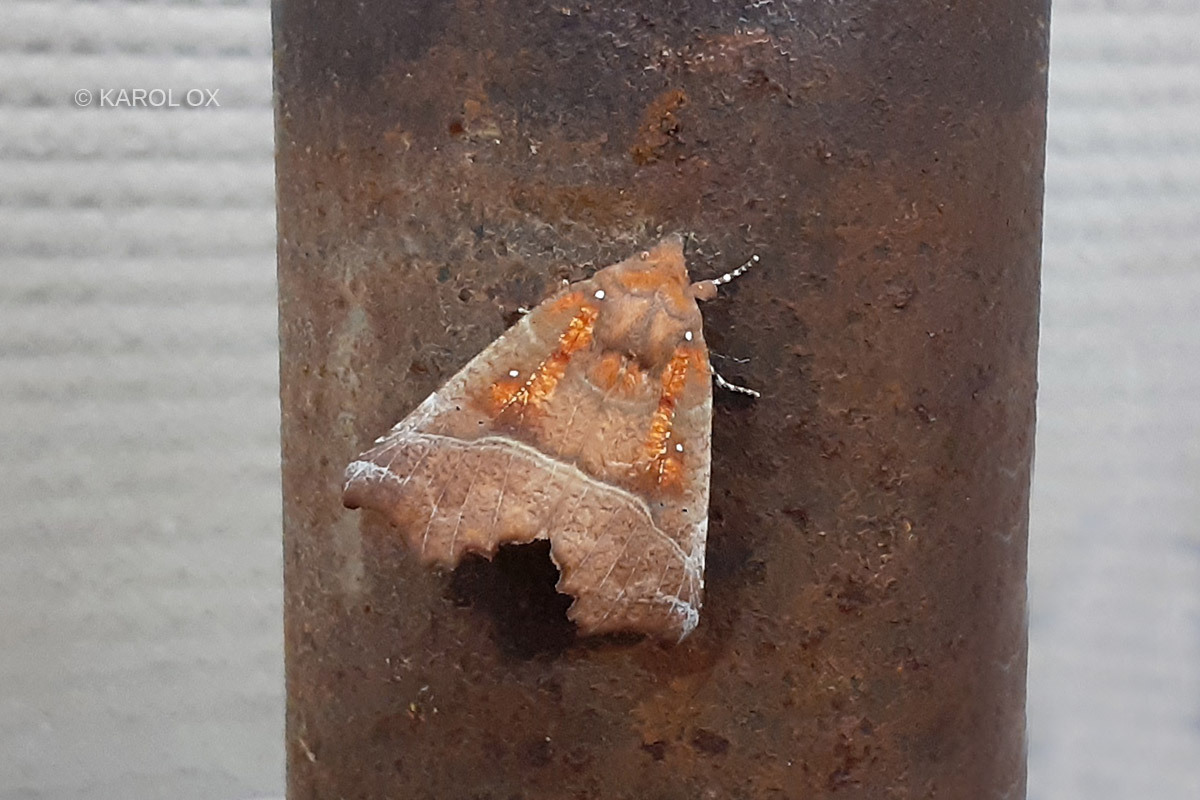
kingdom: Animalia
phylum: Arthropoda
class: Insecta
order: Lepidoptera
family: Erebidae
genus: Scoliopteryx
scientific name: Scoliopteryx libatrix
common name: Herald
